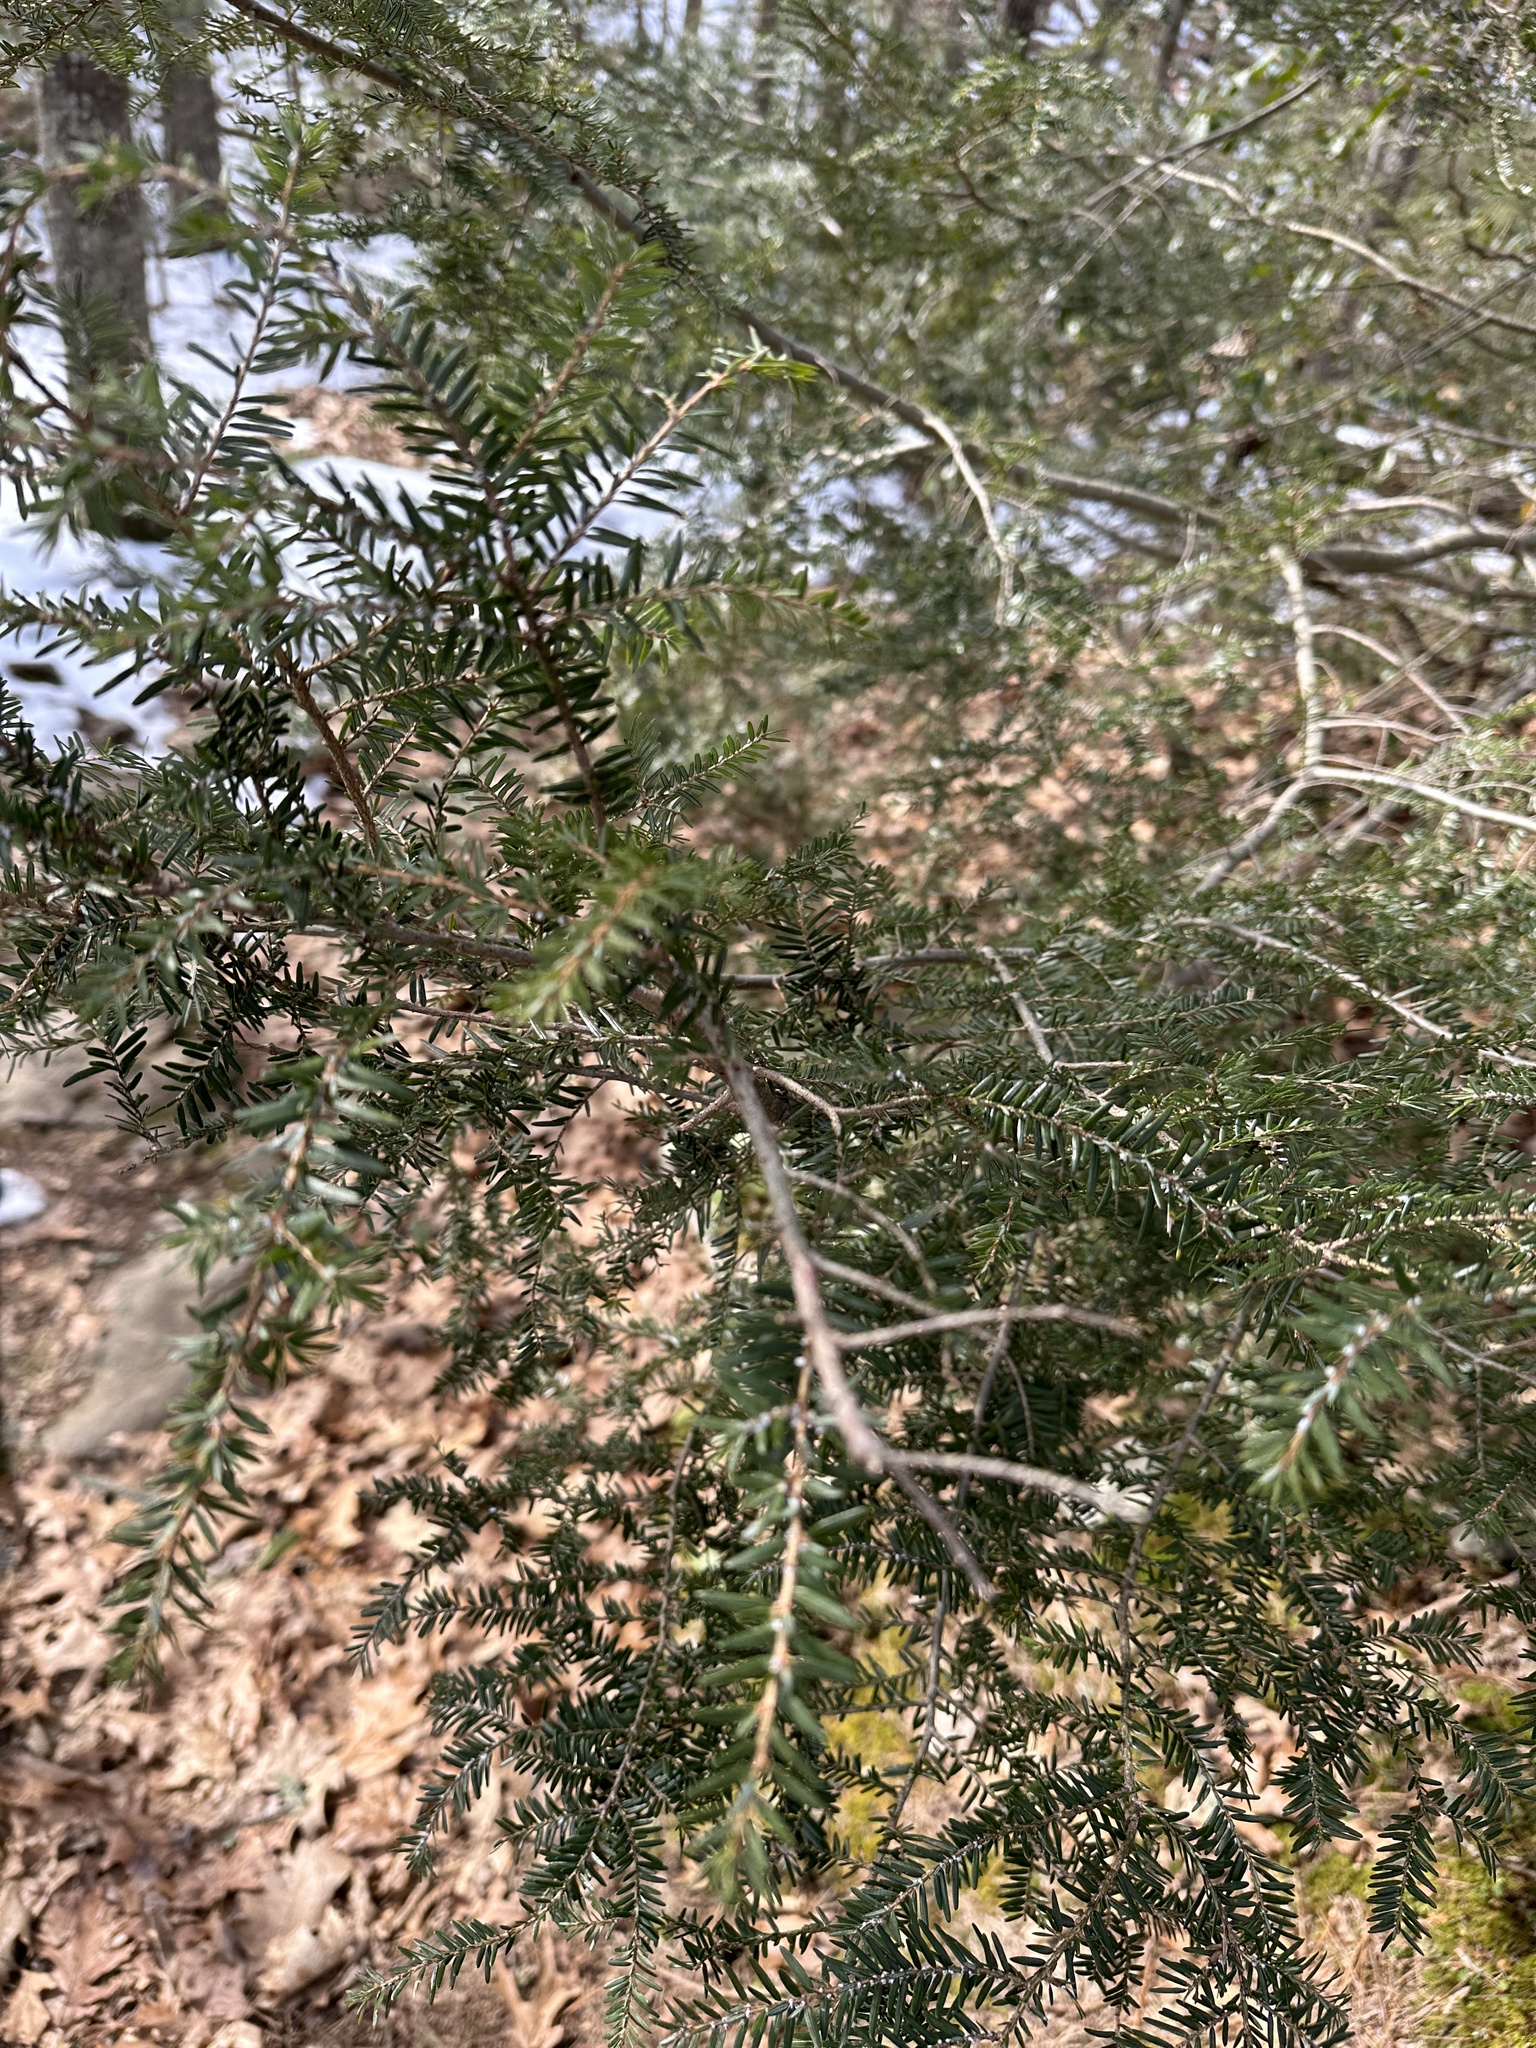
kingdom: Plantae
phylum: Tracheophyta
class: Pinopsida
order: Pinales
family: Pinaceae
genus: Tsuga
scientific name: Tsuga canadensis
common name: Eastern hemlock
